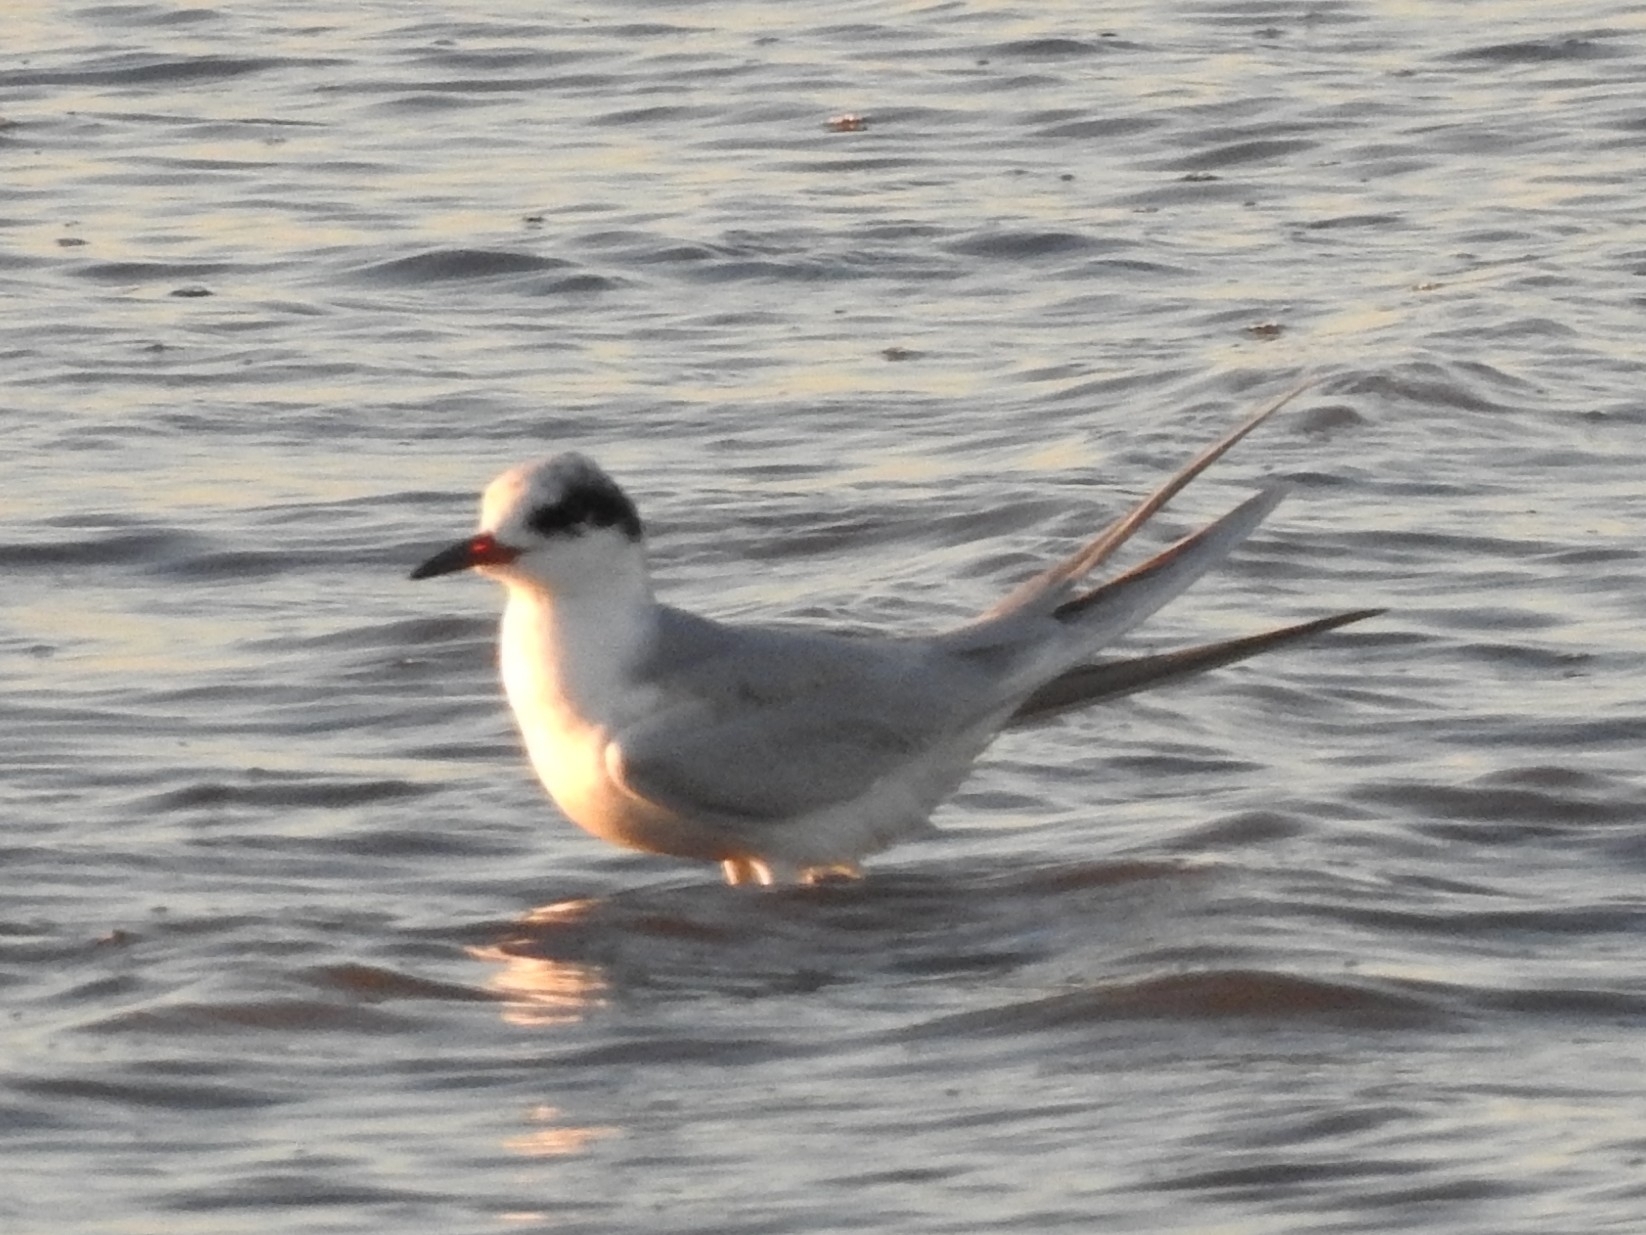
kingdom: Animalia
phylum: Chordata
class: Aves
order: Charadriiformes
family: Laridae
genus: Sterna
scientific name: Sterna forsteri
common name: Forster's tern
